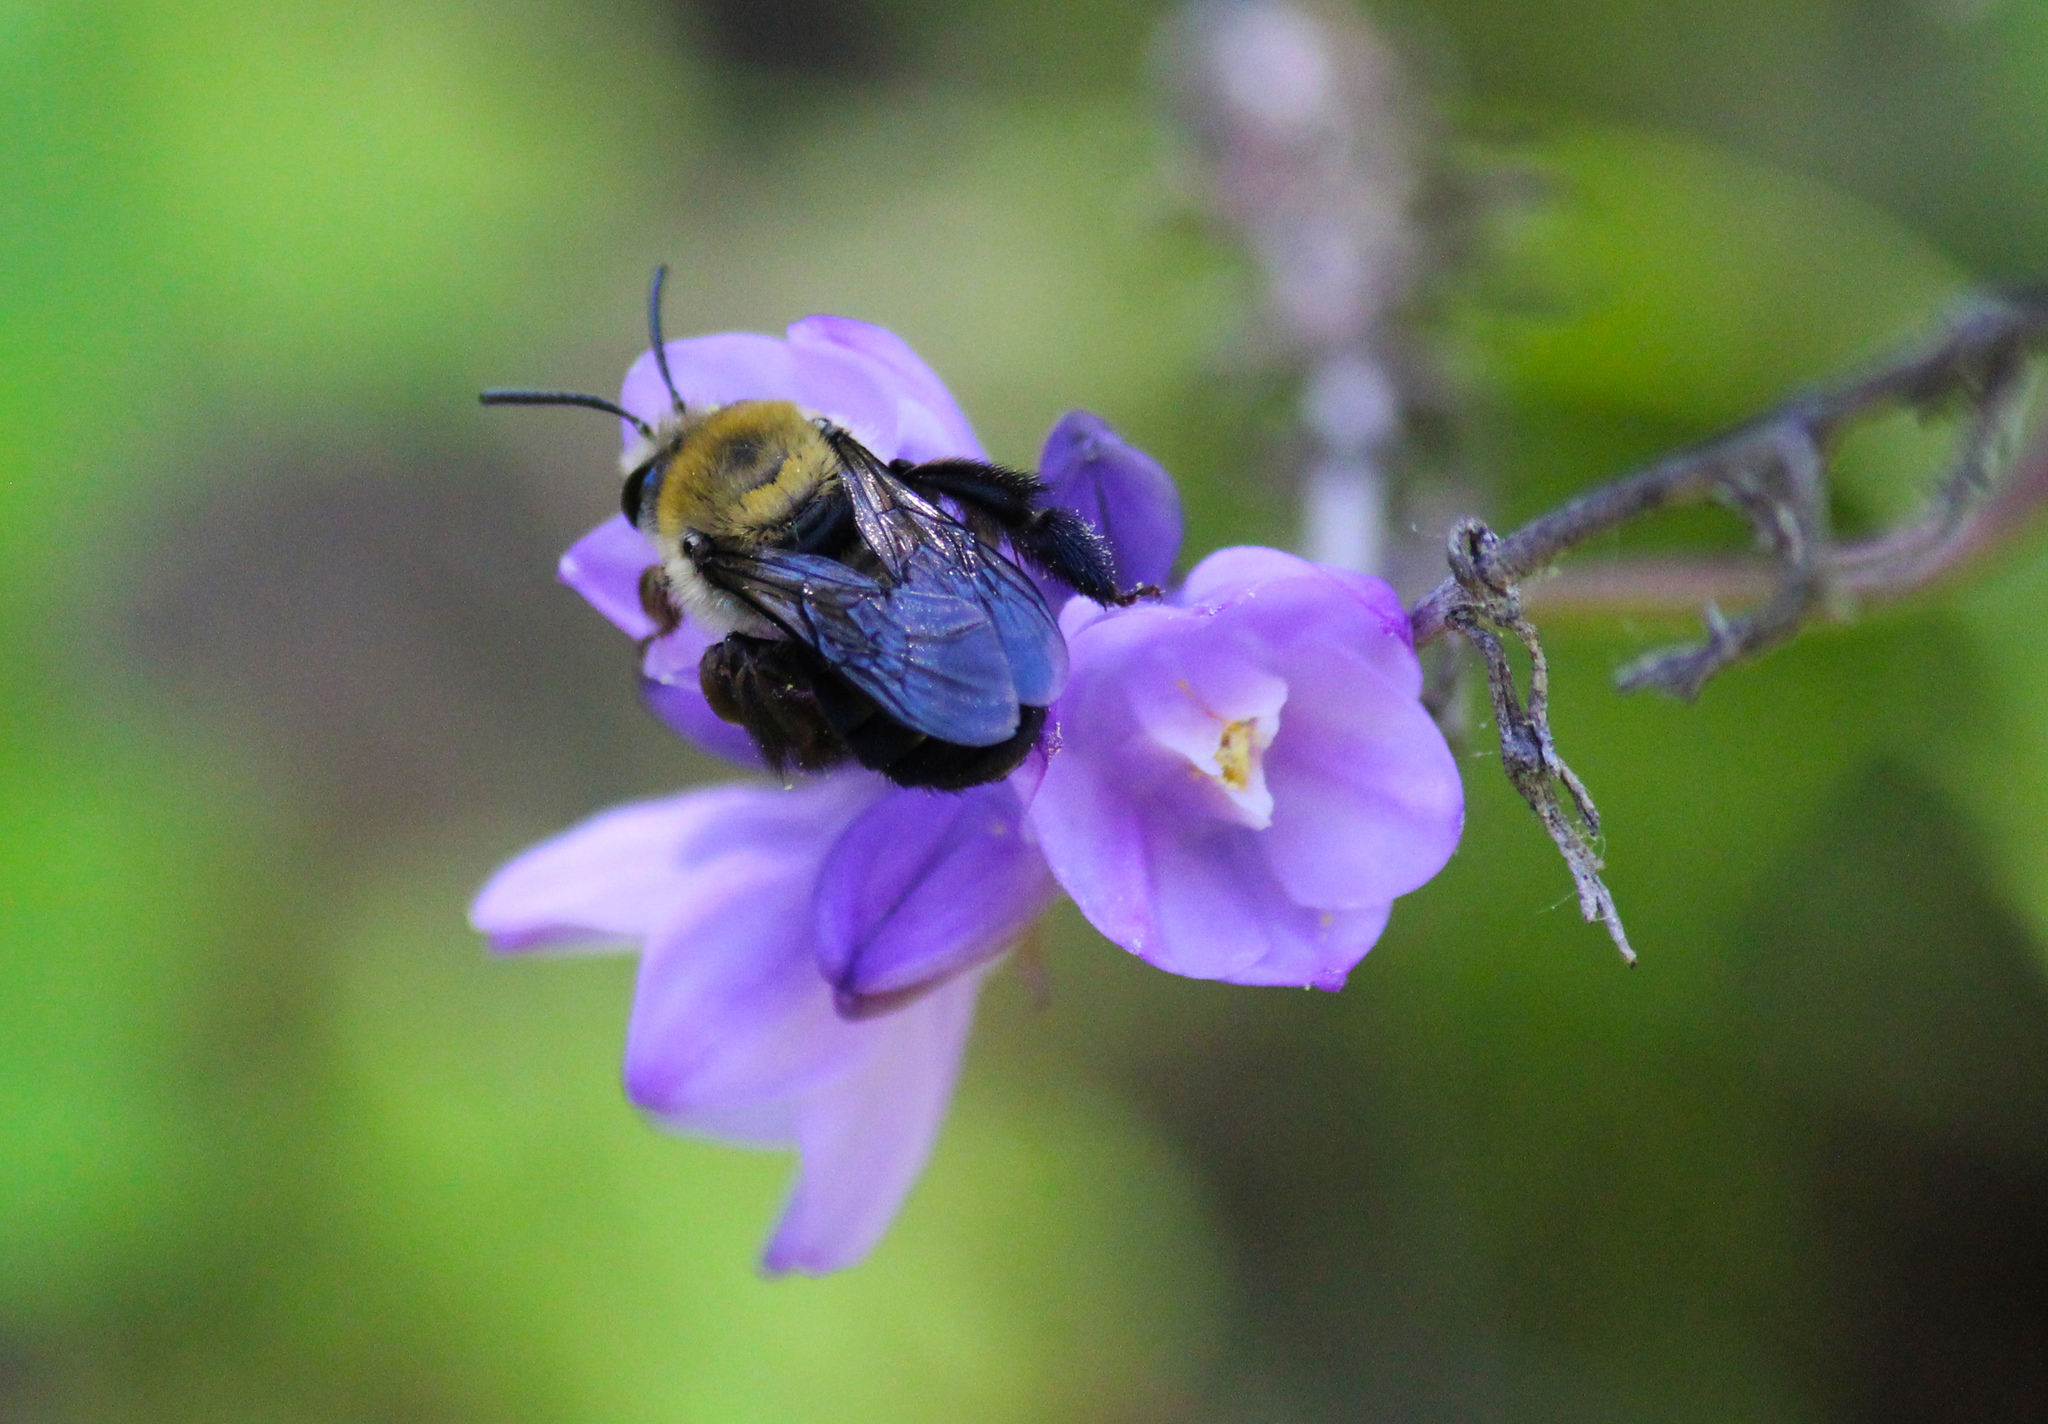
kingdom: Animalia
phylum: Arthropoda
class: Insecta
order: Hymenoptera
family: Apidae
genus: Synhalonia
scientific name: Synhalonia
